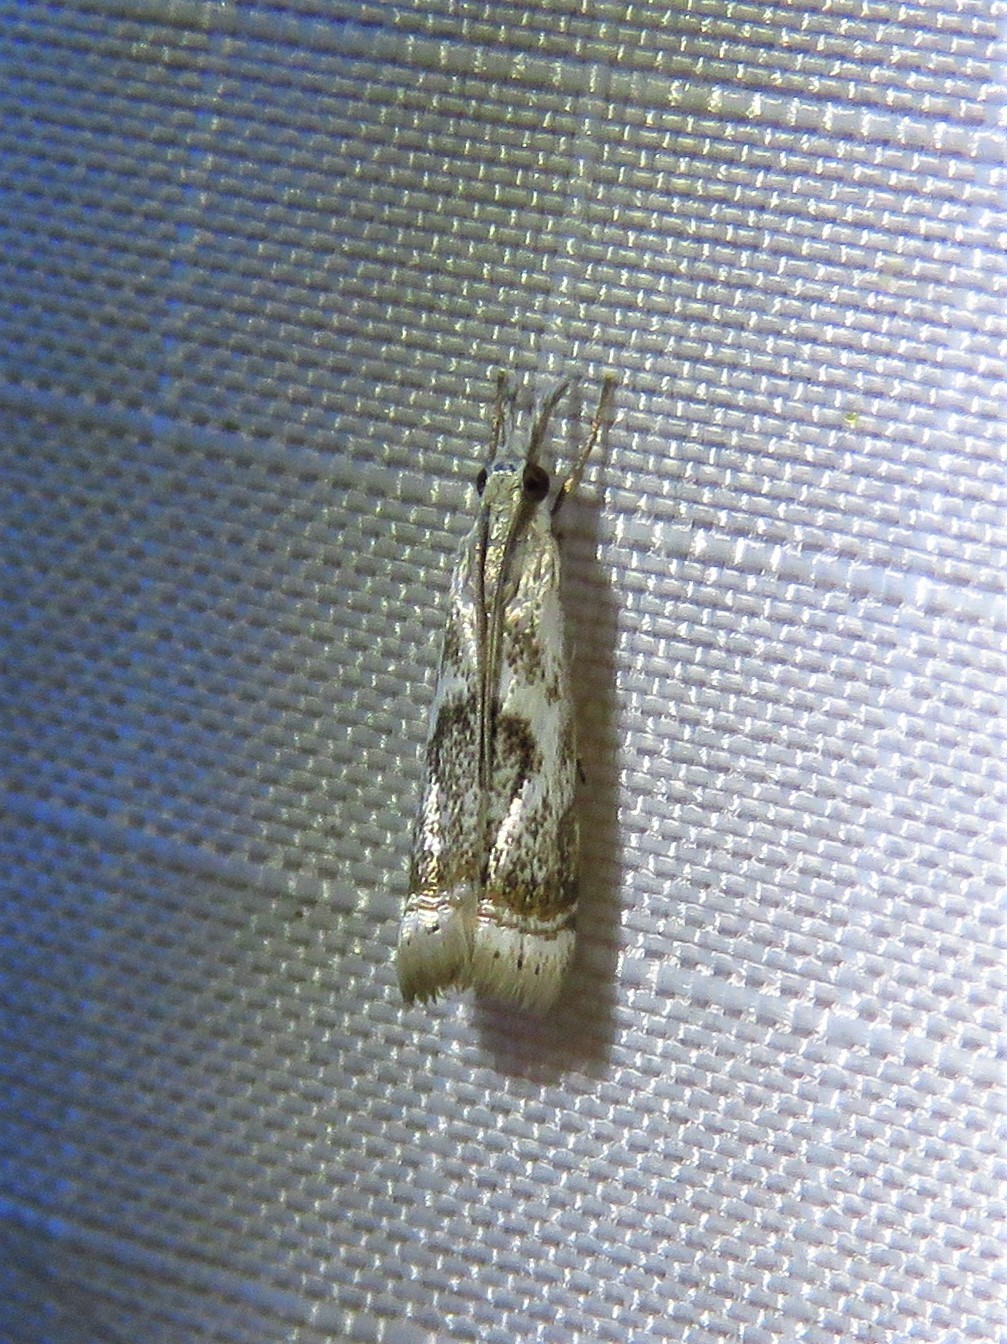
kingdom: Animalia
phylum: Arthropoda
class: Insecta
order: Lepidoptera
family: Crambidae
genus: Microcrambus
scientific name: Microcrambus elegans
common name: Elegant grass-veneer
